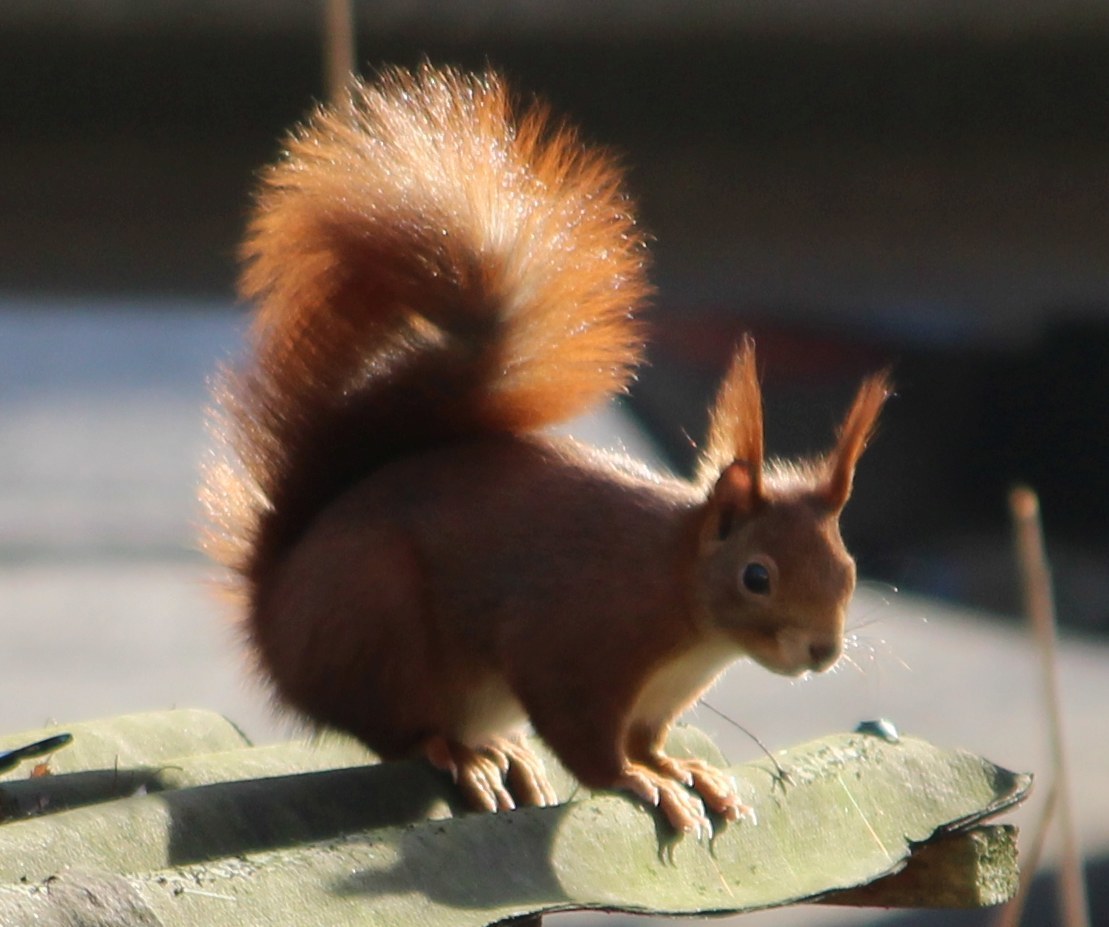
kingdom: Animalia
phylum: Chordata
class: Mammalia
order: Rodentia
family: Sciuridae
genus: Sciurus
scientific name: Sciurus vulgaris
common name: Eurasian red squirrel
